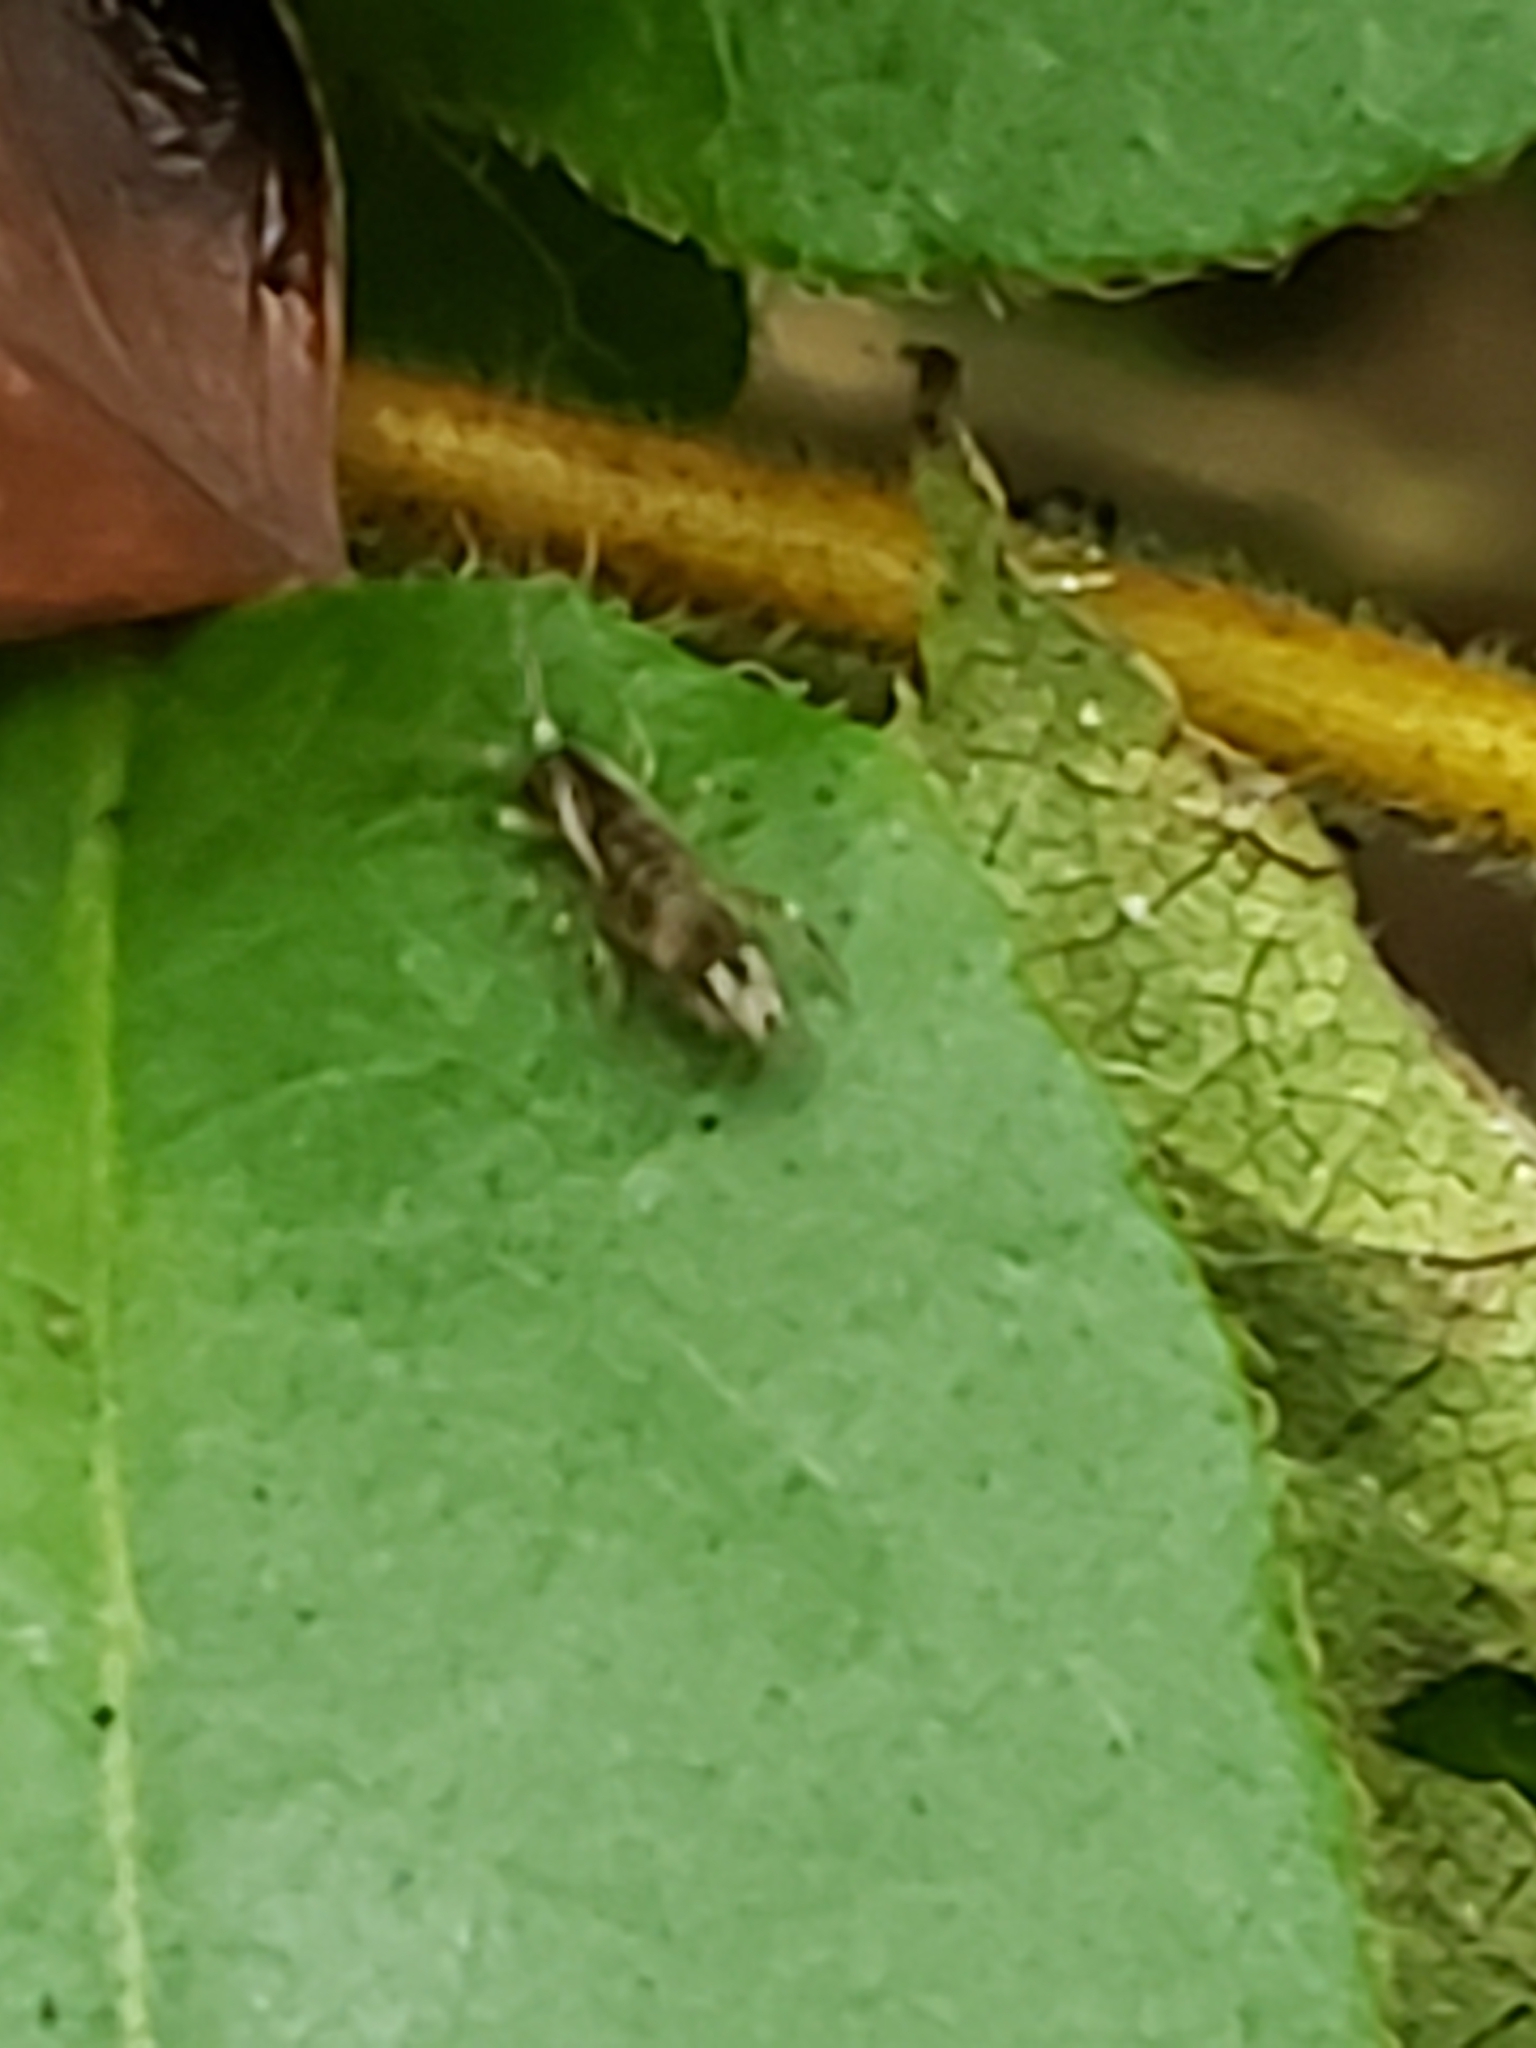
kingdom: Animalia
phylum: Arthropoda
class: Collembola
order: Entomobryomorpha
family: Tomoceridae
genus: Pogonognathellus
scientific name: Pogonognathellus elongatus
